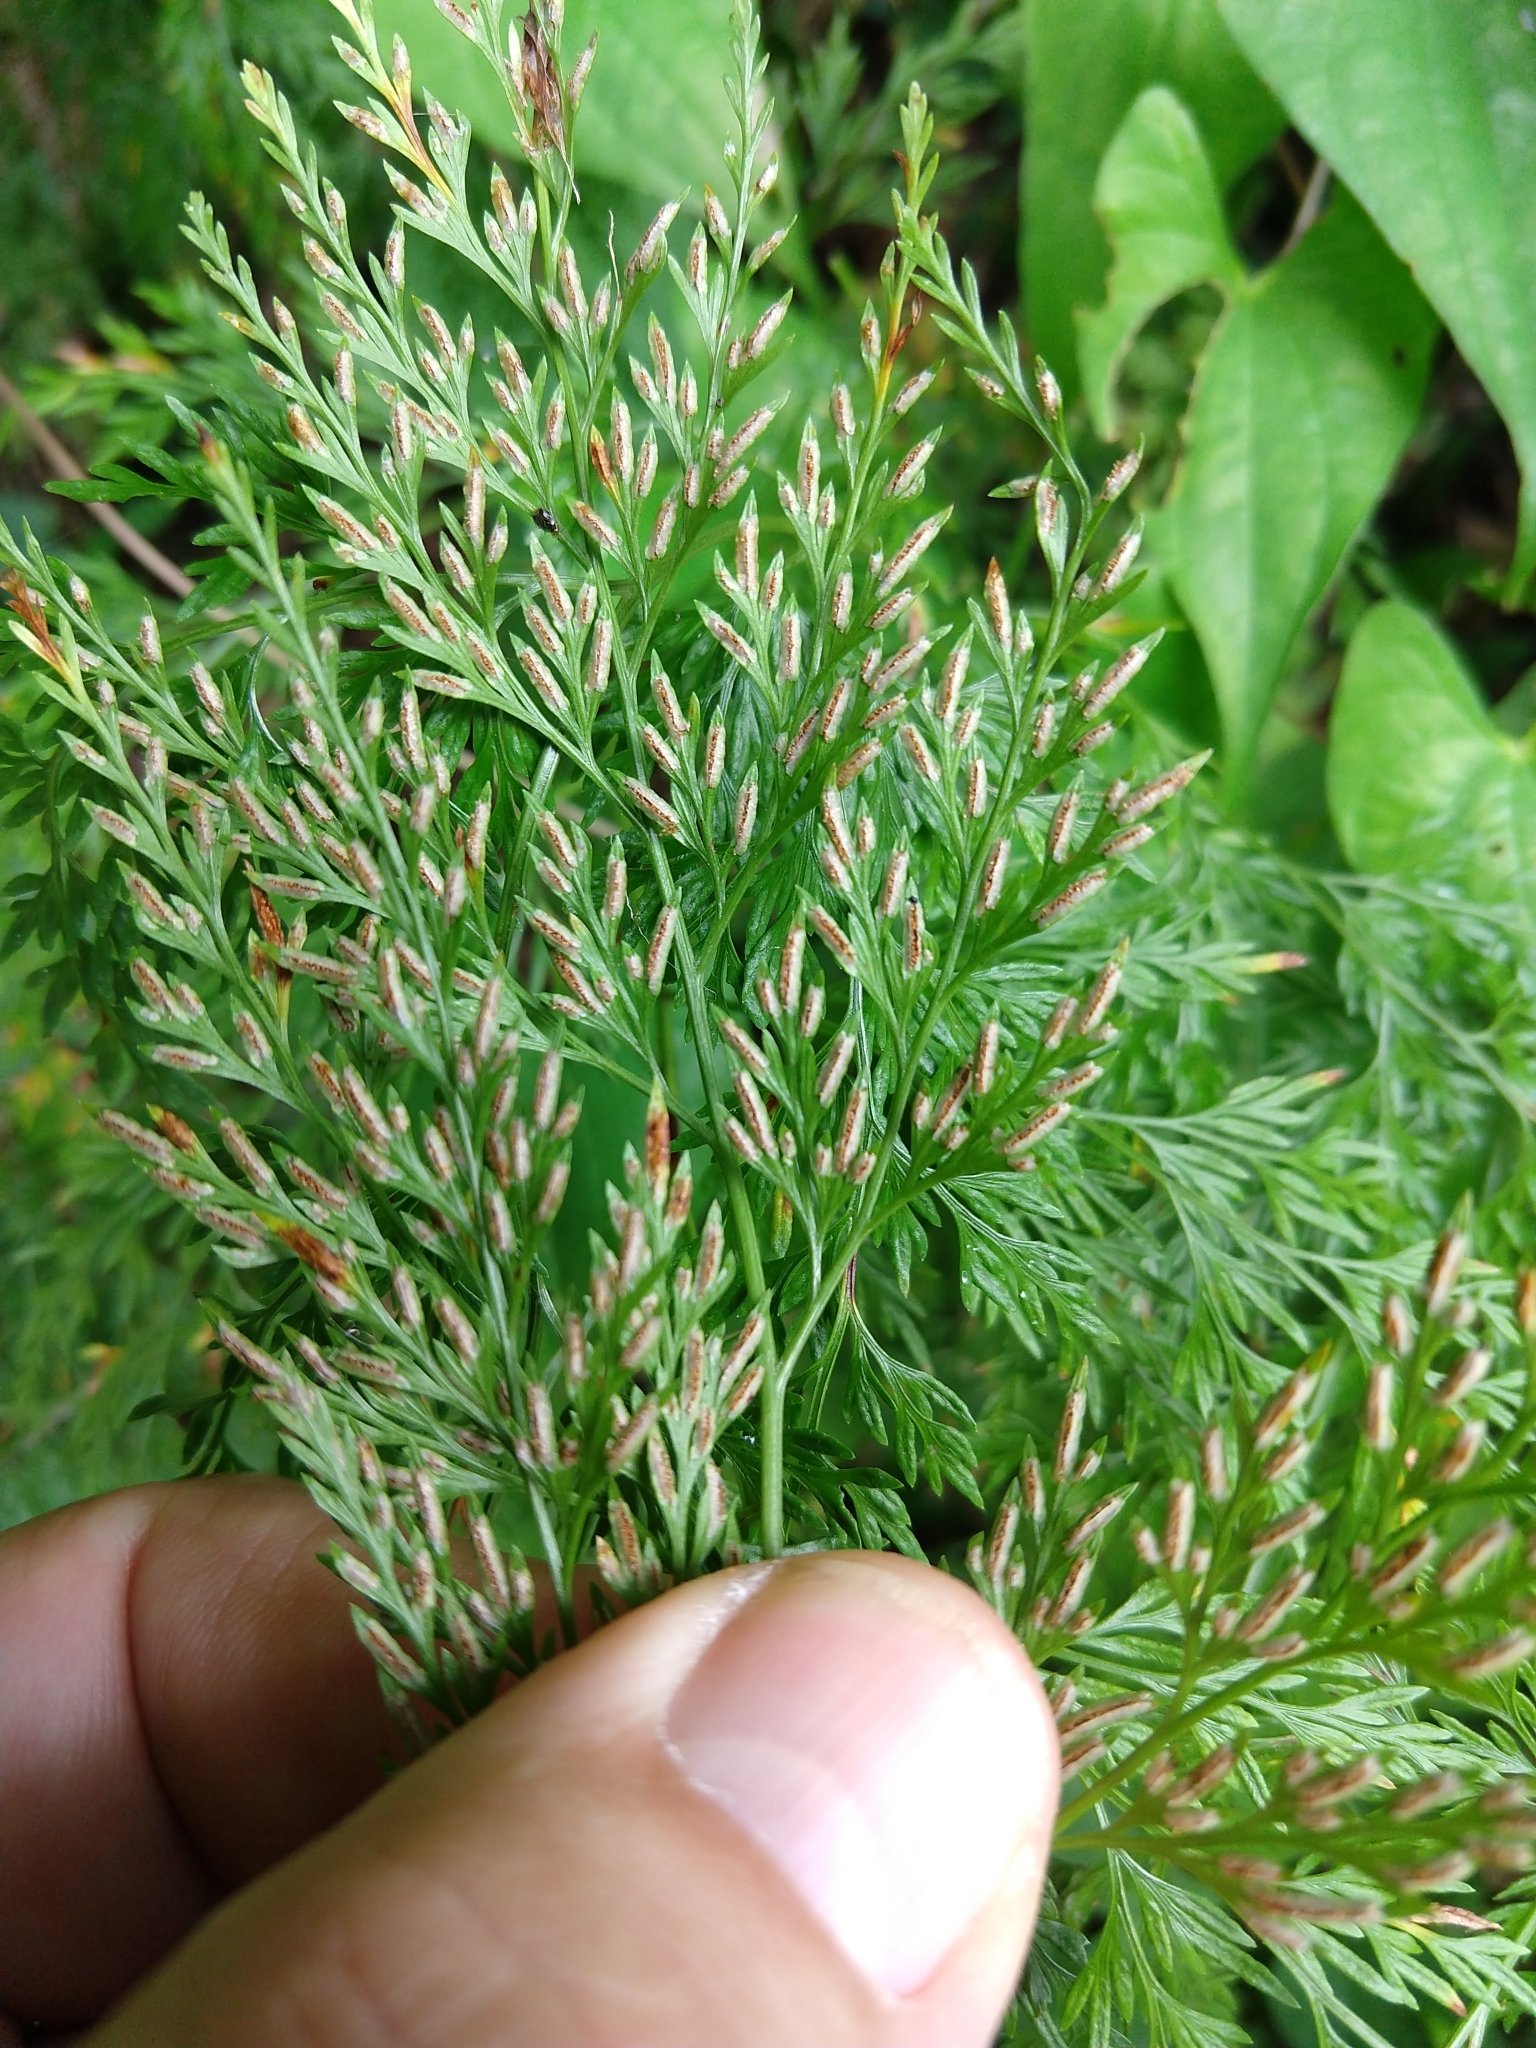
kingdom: Plantae
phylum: Tracheophyta
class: Polypodiopsida
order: Polypodiales
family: Pteridaceae
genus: Onychium
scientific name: Onychium japonicum
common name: Carrot fern
